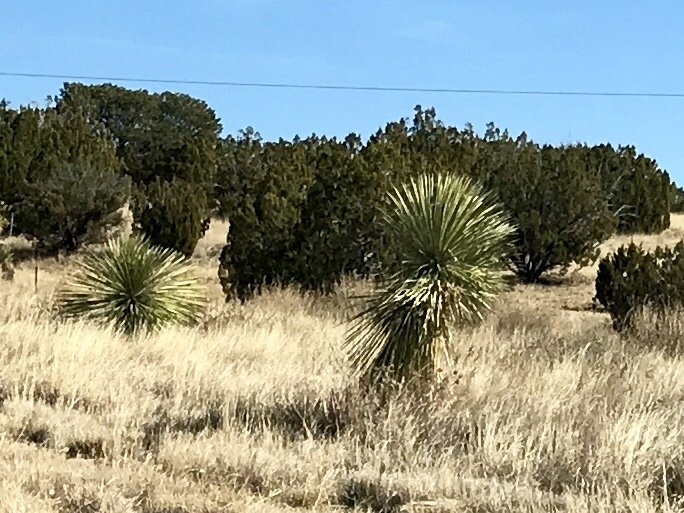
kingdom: Plantae
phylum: Tracheophyta
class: Liliopsida
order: Asparagales
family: Asparagaceae
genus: Yucca
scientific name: Yucca elata
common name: Palmella
